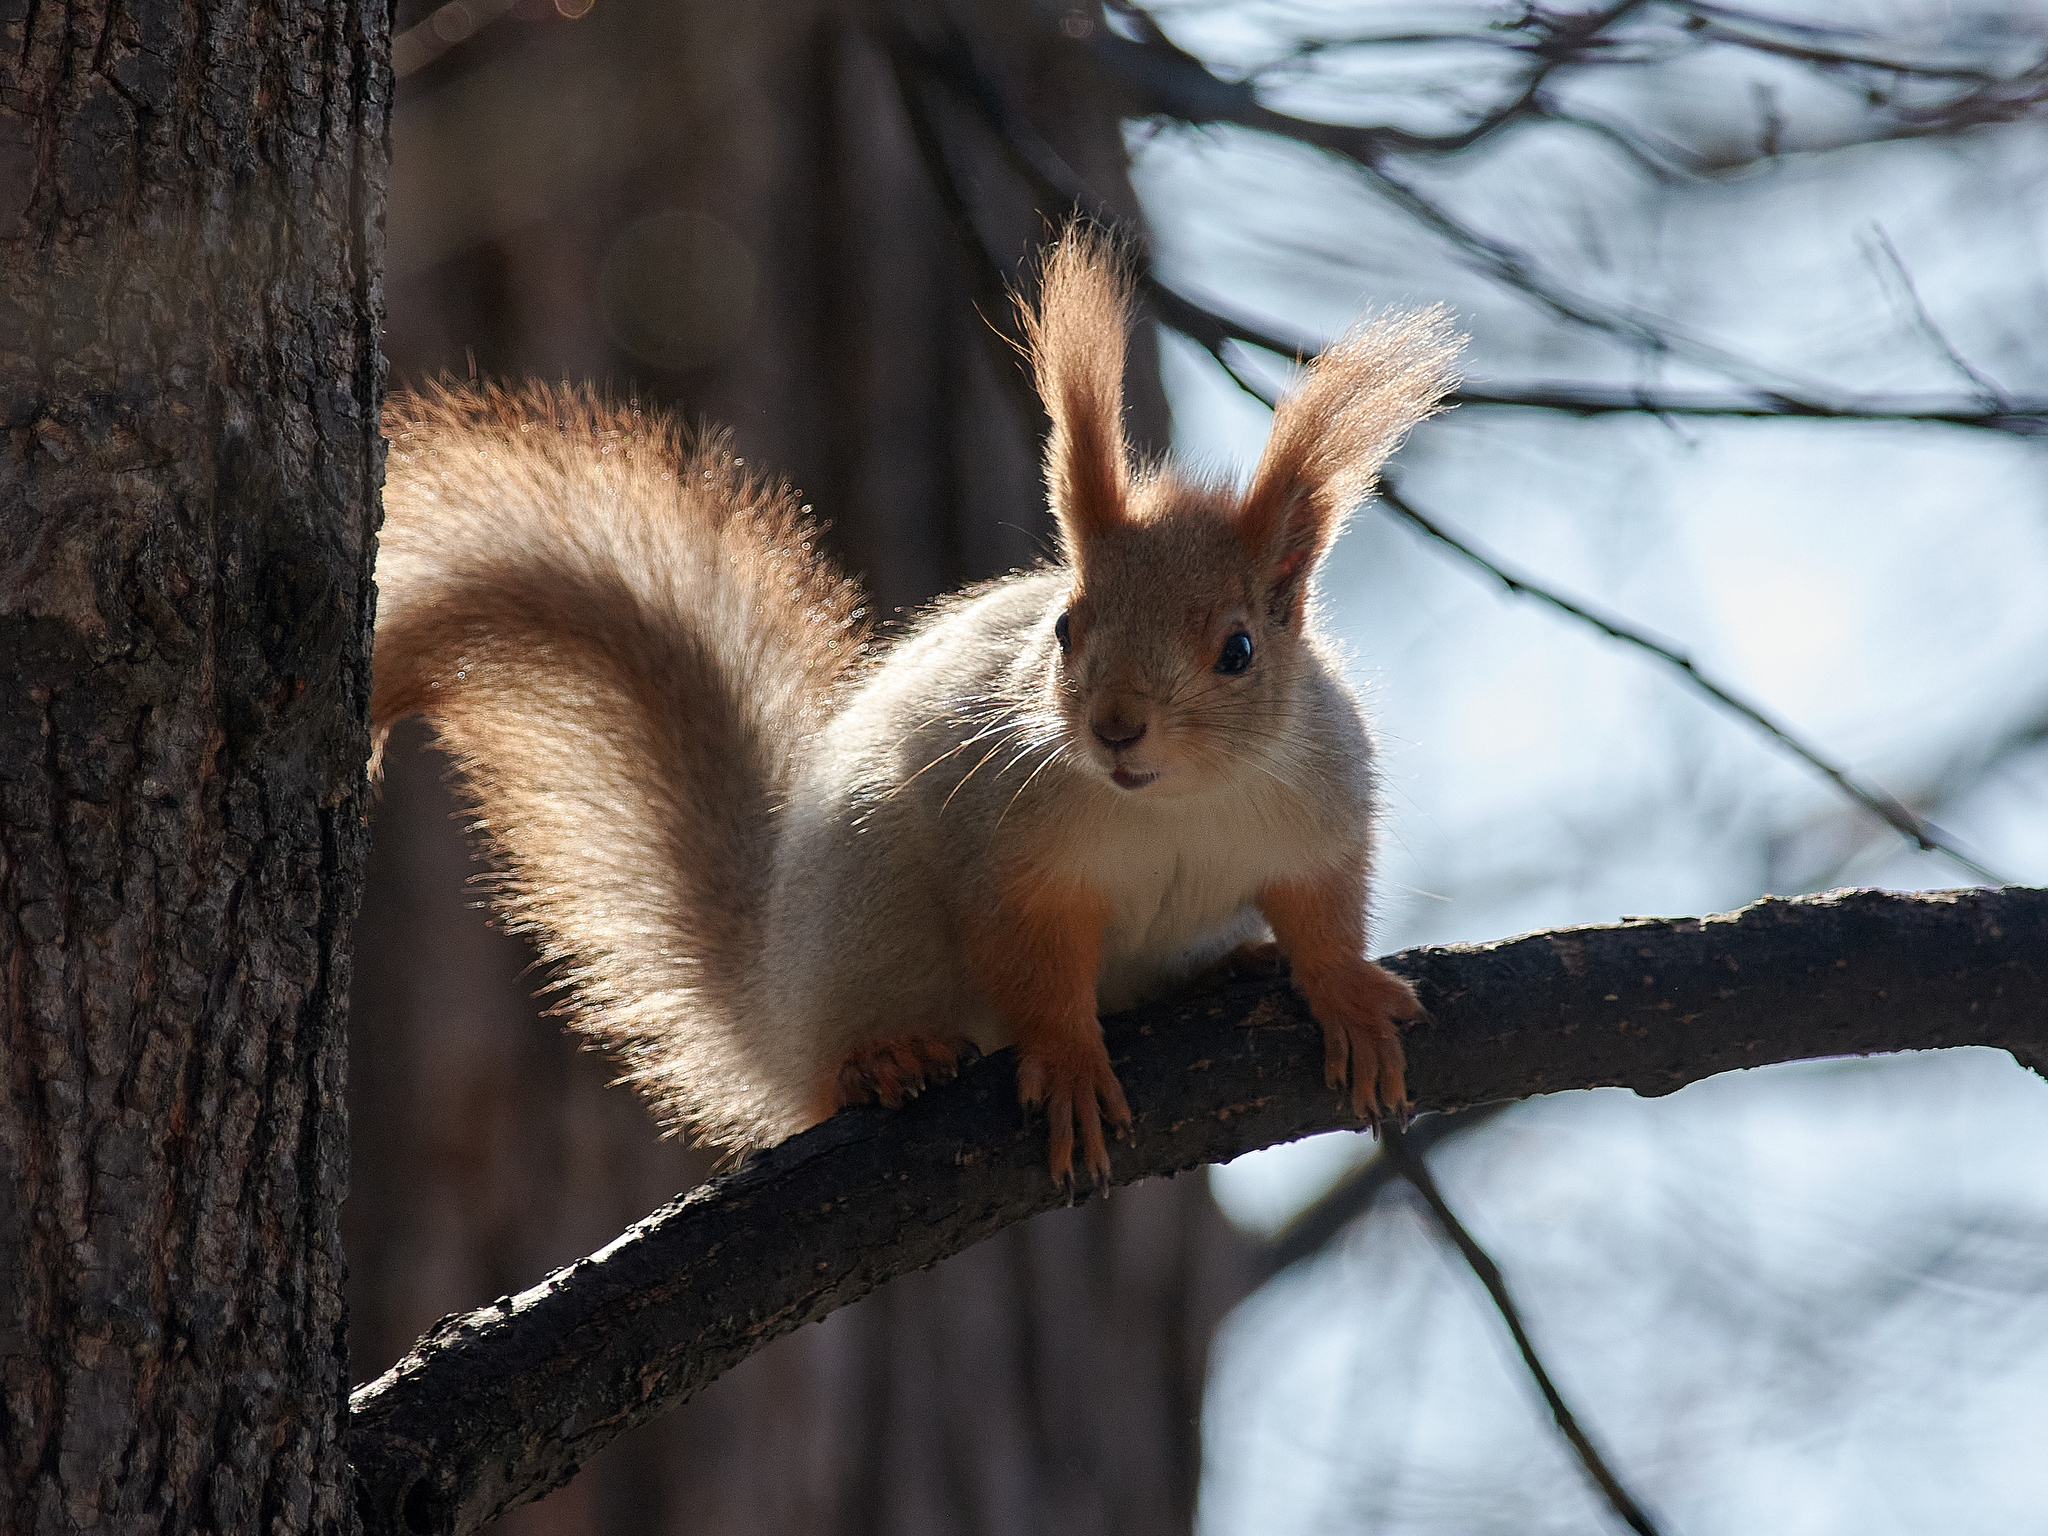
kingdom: Animalia
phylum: Chordata
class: Mammalia
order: Rodentia
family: Sciuridae
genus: Sciurus
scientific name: Sciurus vulgaris
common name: Eurasian red squirrel
